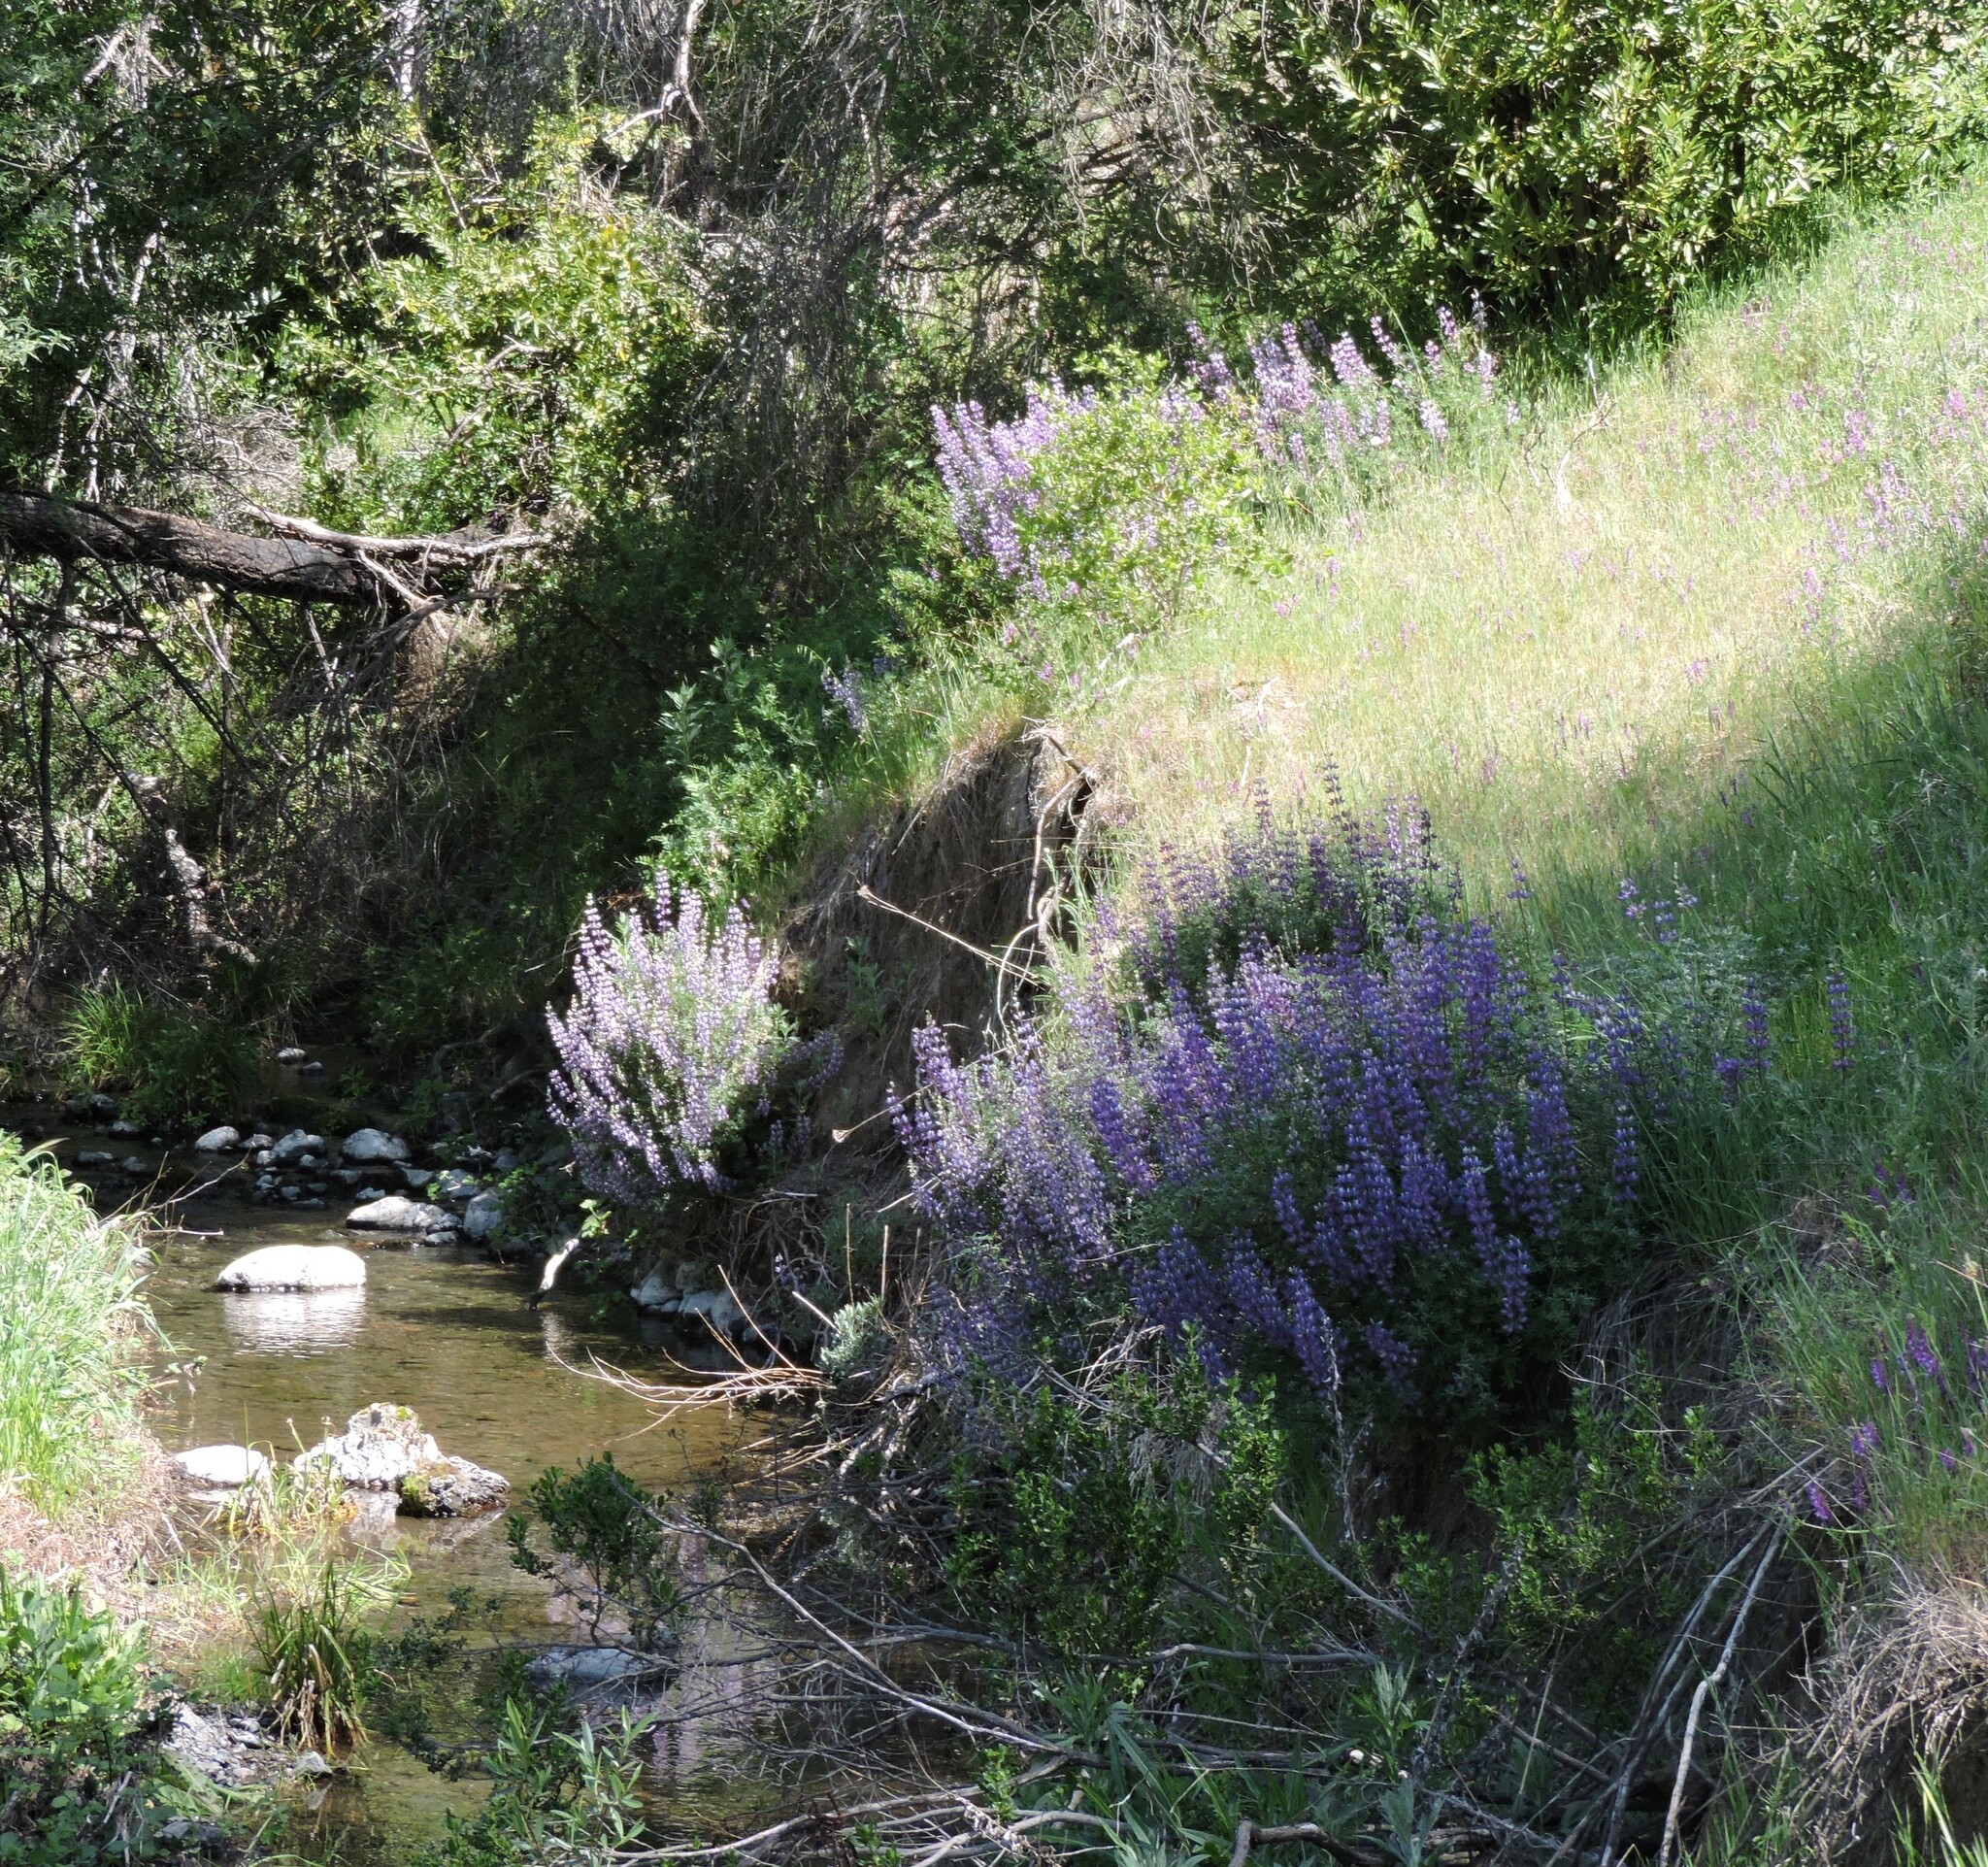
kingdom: Plantae
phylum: Tracheophyta
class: Magnoliopsida
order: Fabales
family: Fabaceae
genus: Lupinus
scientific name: Lupinus albifrons
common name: Foothill lupine
